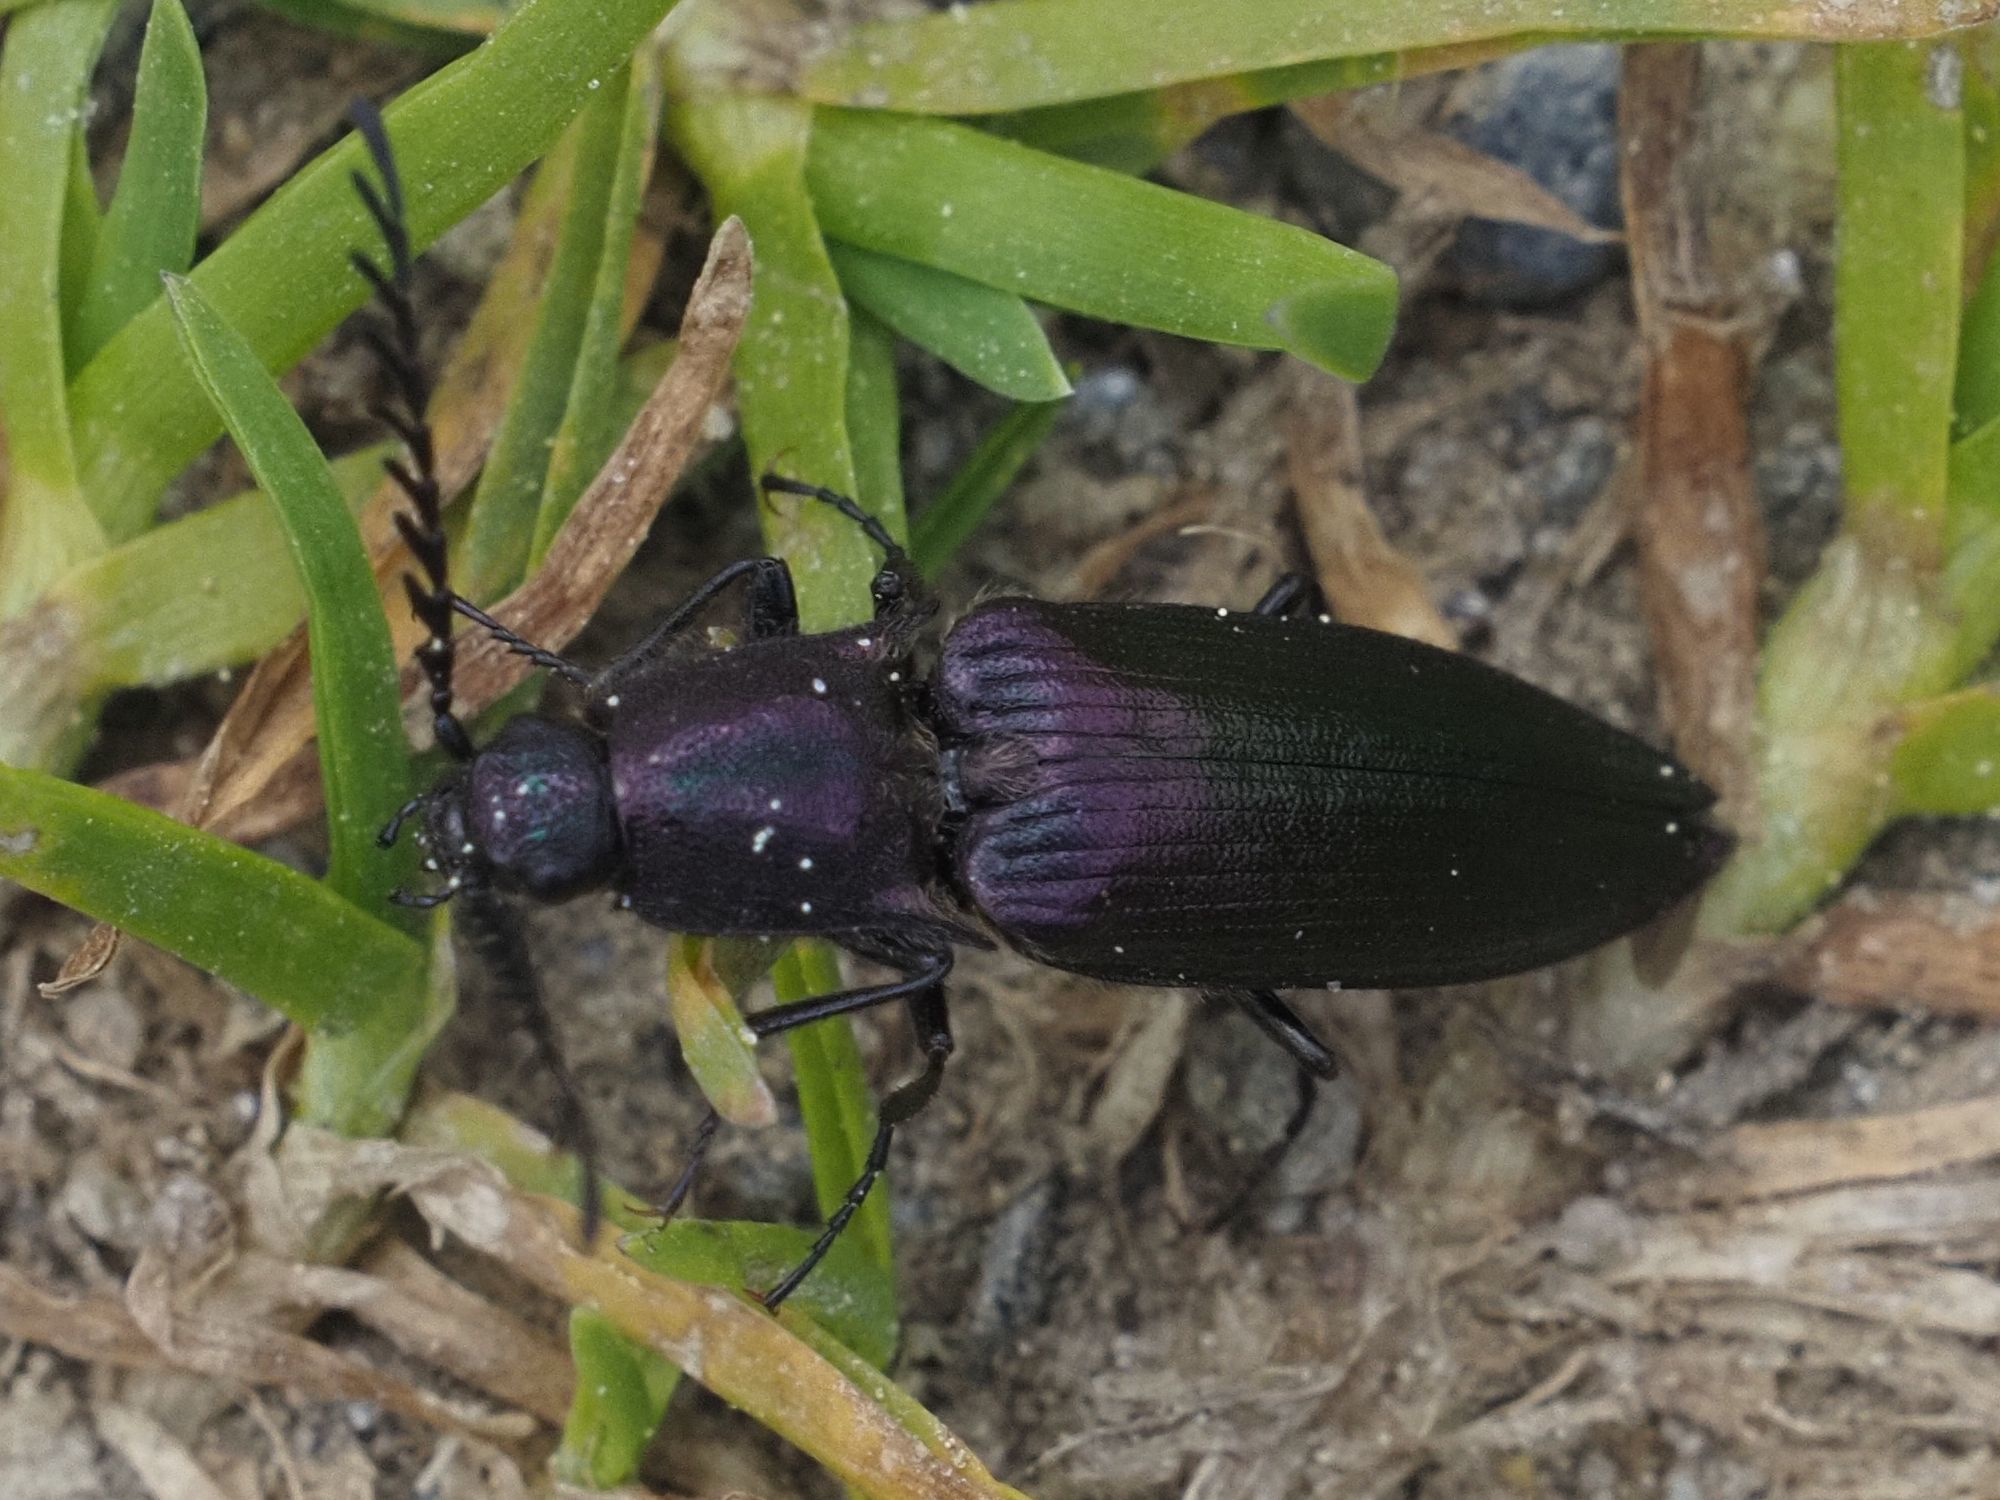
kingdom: Animalia
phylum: Arthropoda
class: Insecta
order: Coleoptera
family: Elateridae
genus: Ctenicera
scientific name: Ctenicera cuprea
